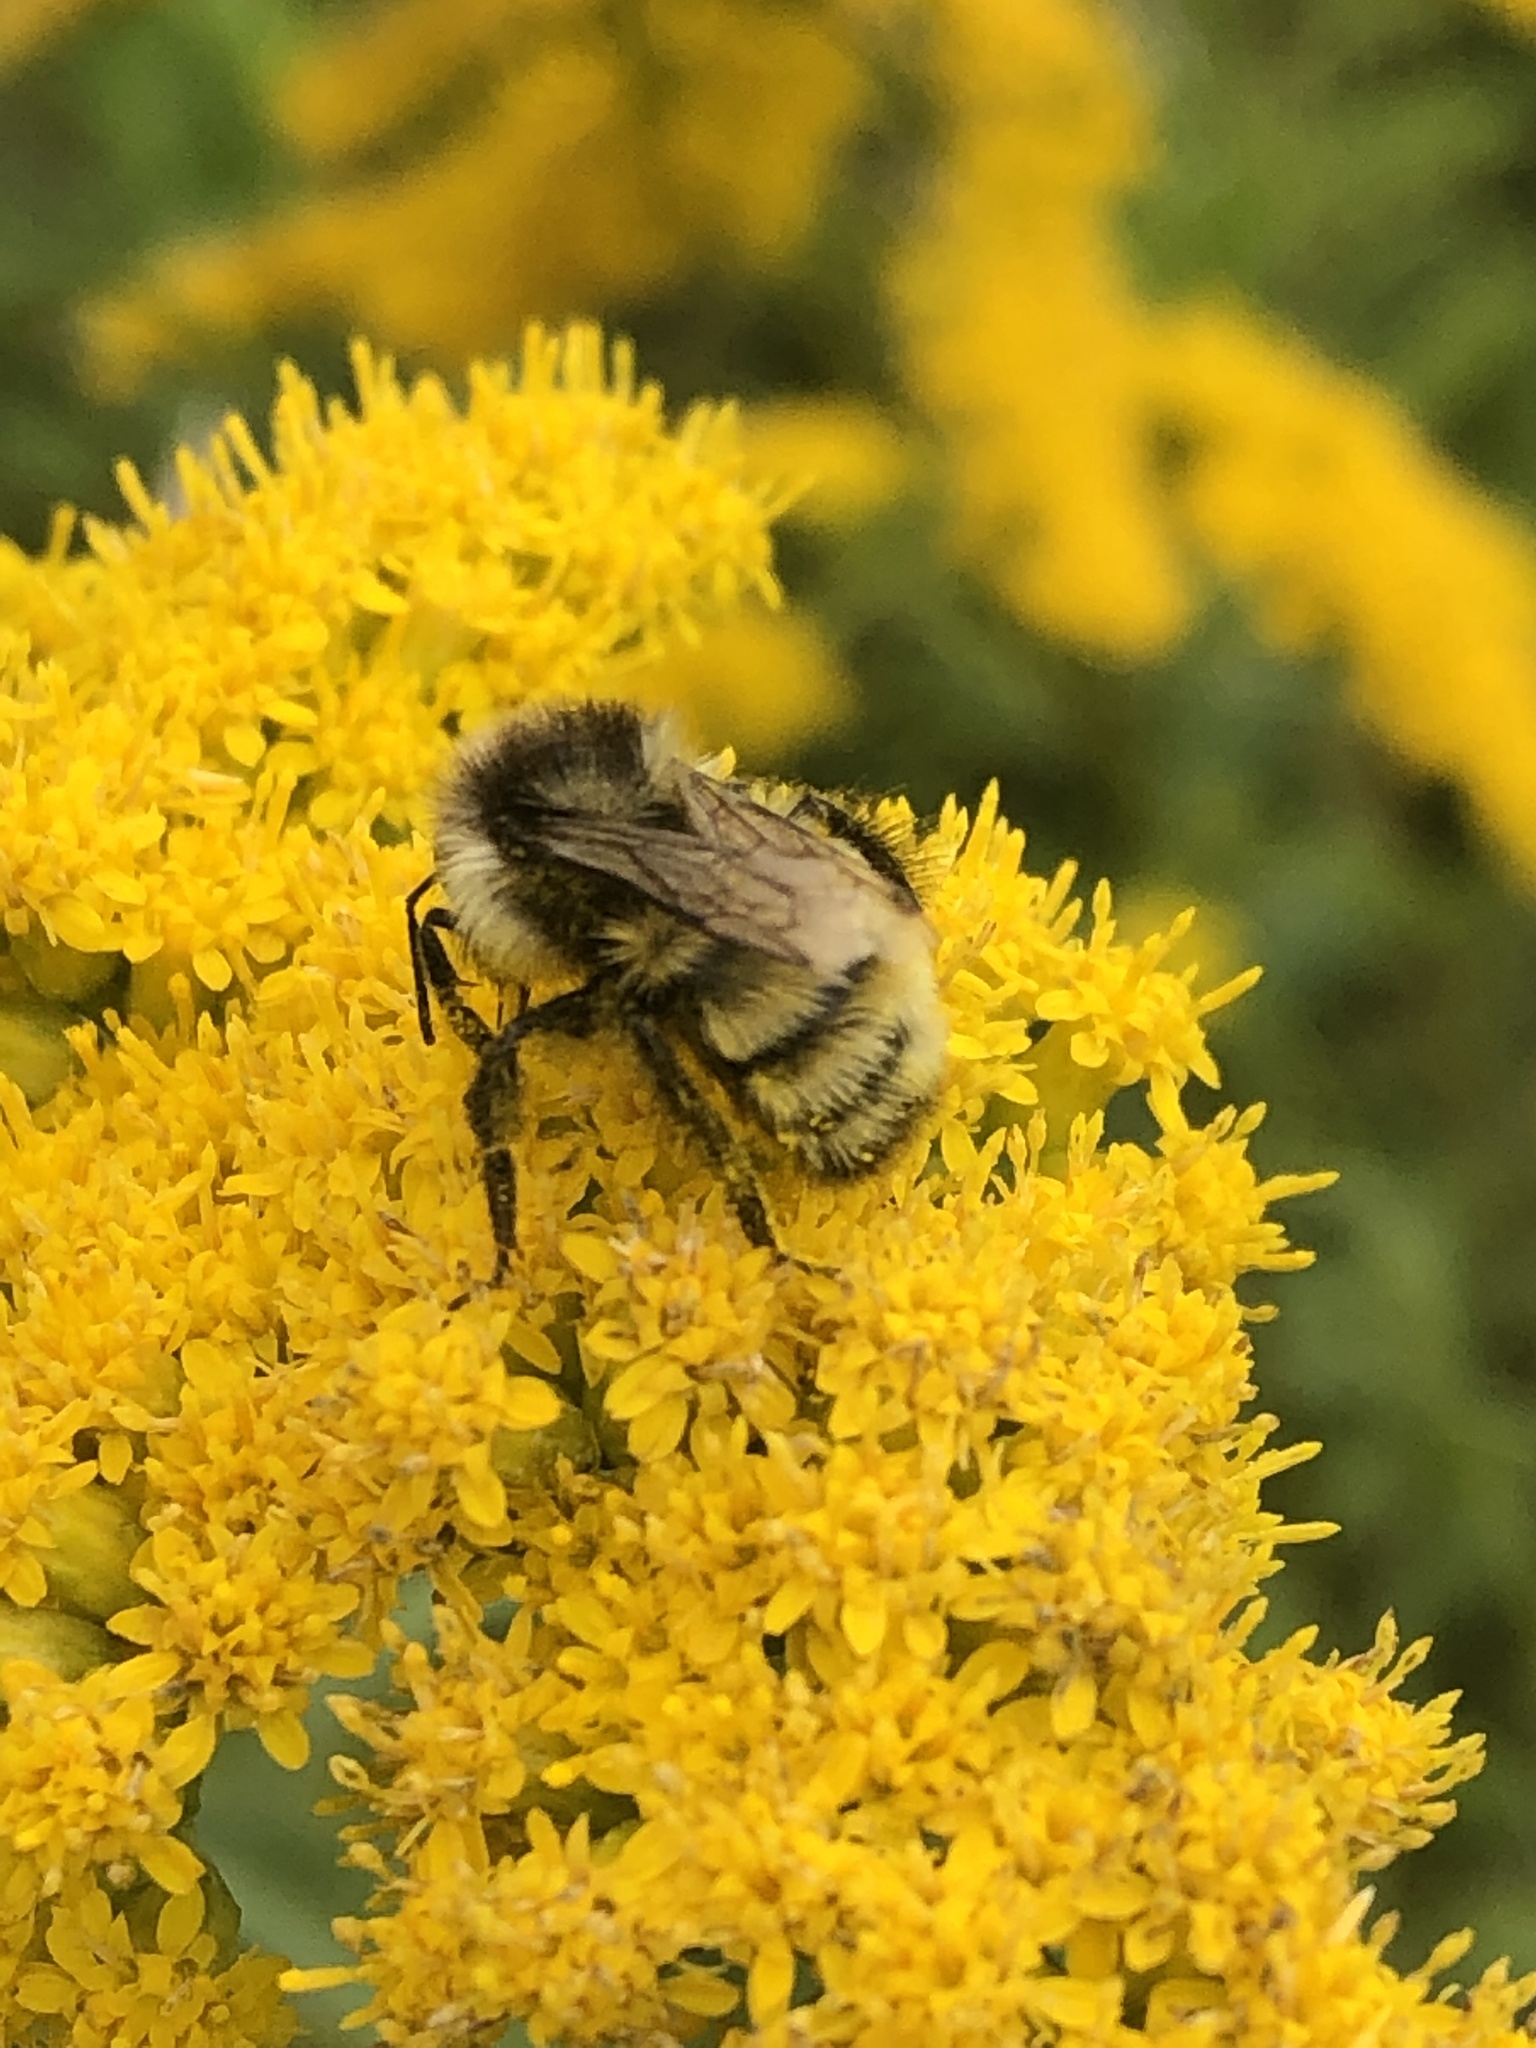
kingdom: Animalia
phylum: Arthropoda
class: Insecta
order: Hymenoptera
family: Apidae
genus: Bombus
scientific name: Bombus ternarius
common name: Tri-colored bumble bee
